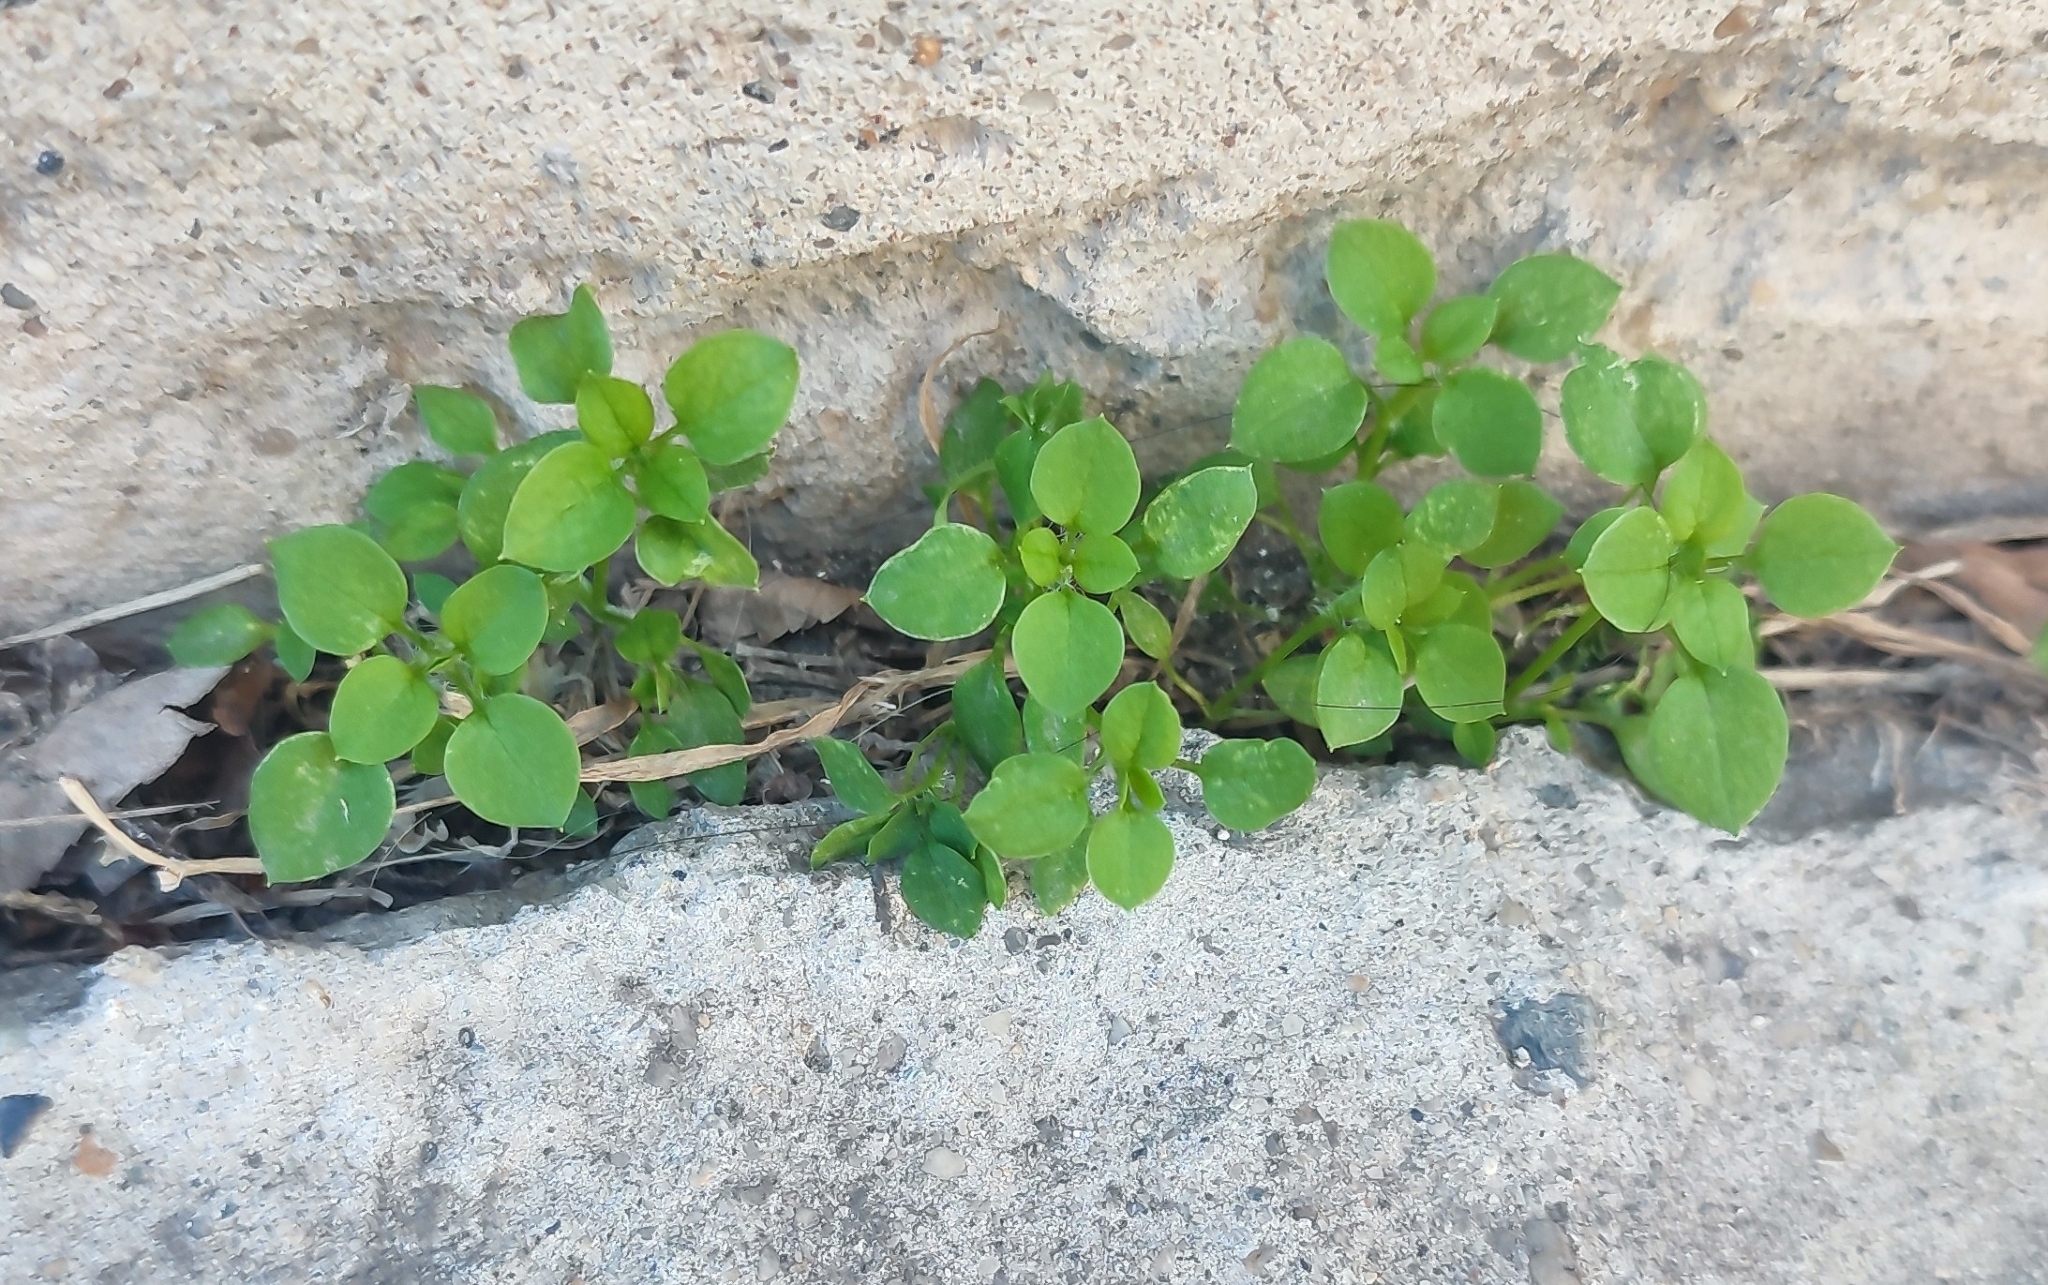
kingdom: Plantae
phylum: Tracheophyta
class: Magnoliopsida
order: Caryophyllales
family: Caryophyllaceae
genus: Stellaria
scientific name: Stellaria media
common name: Common chickweed
